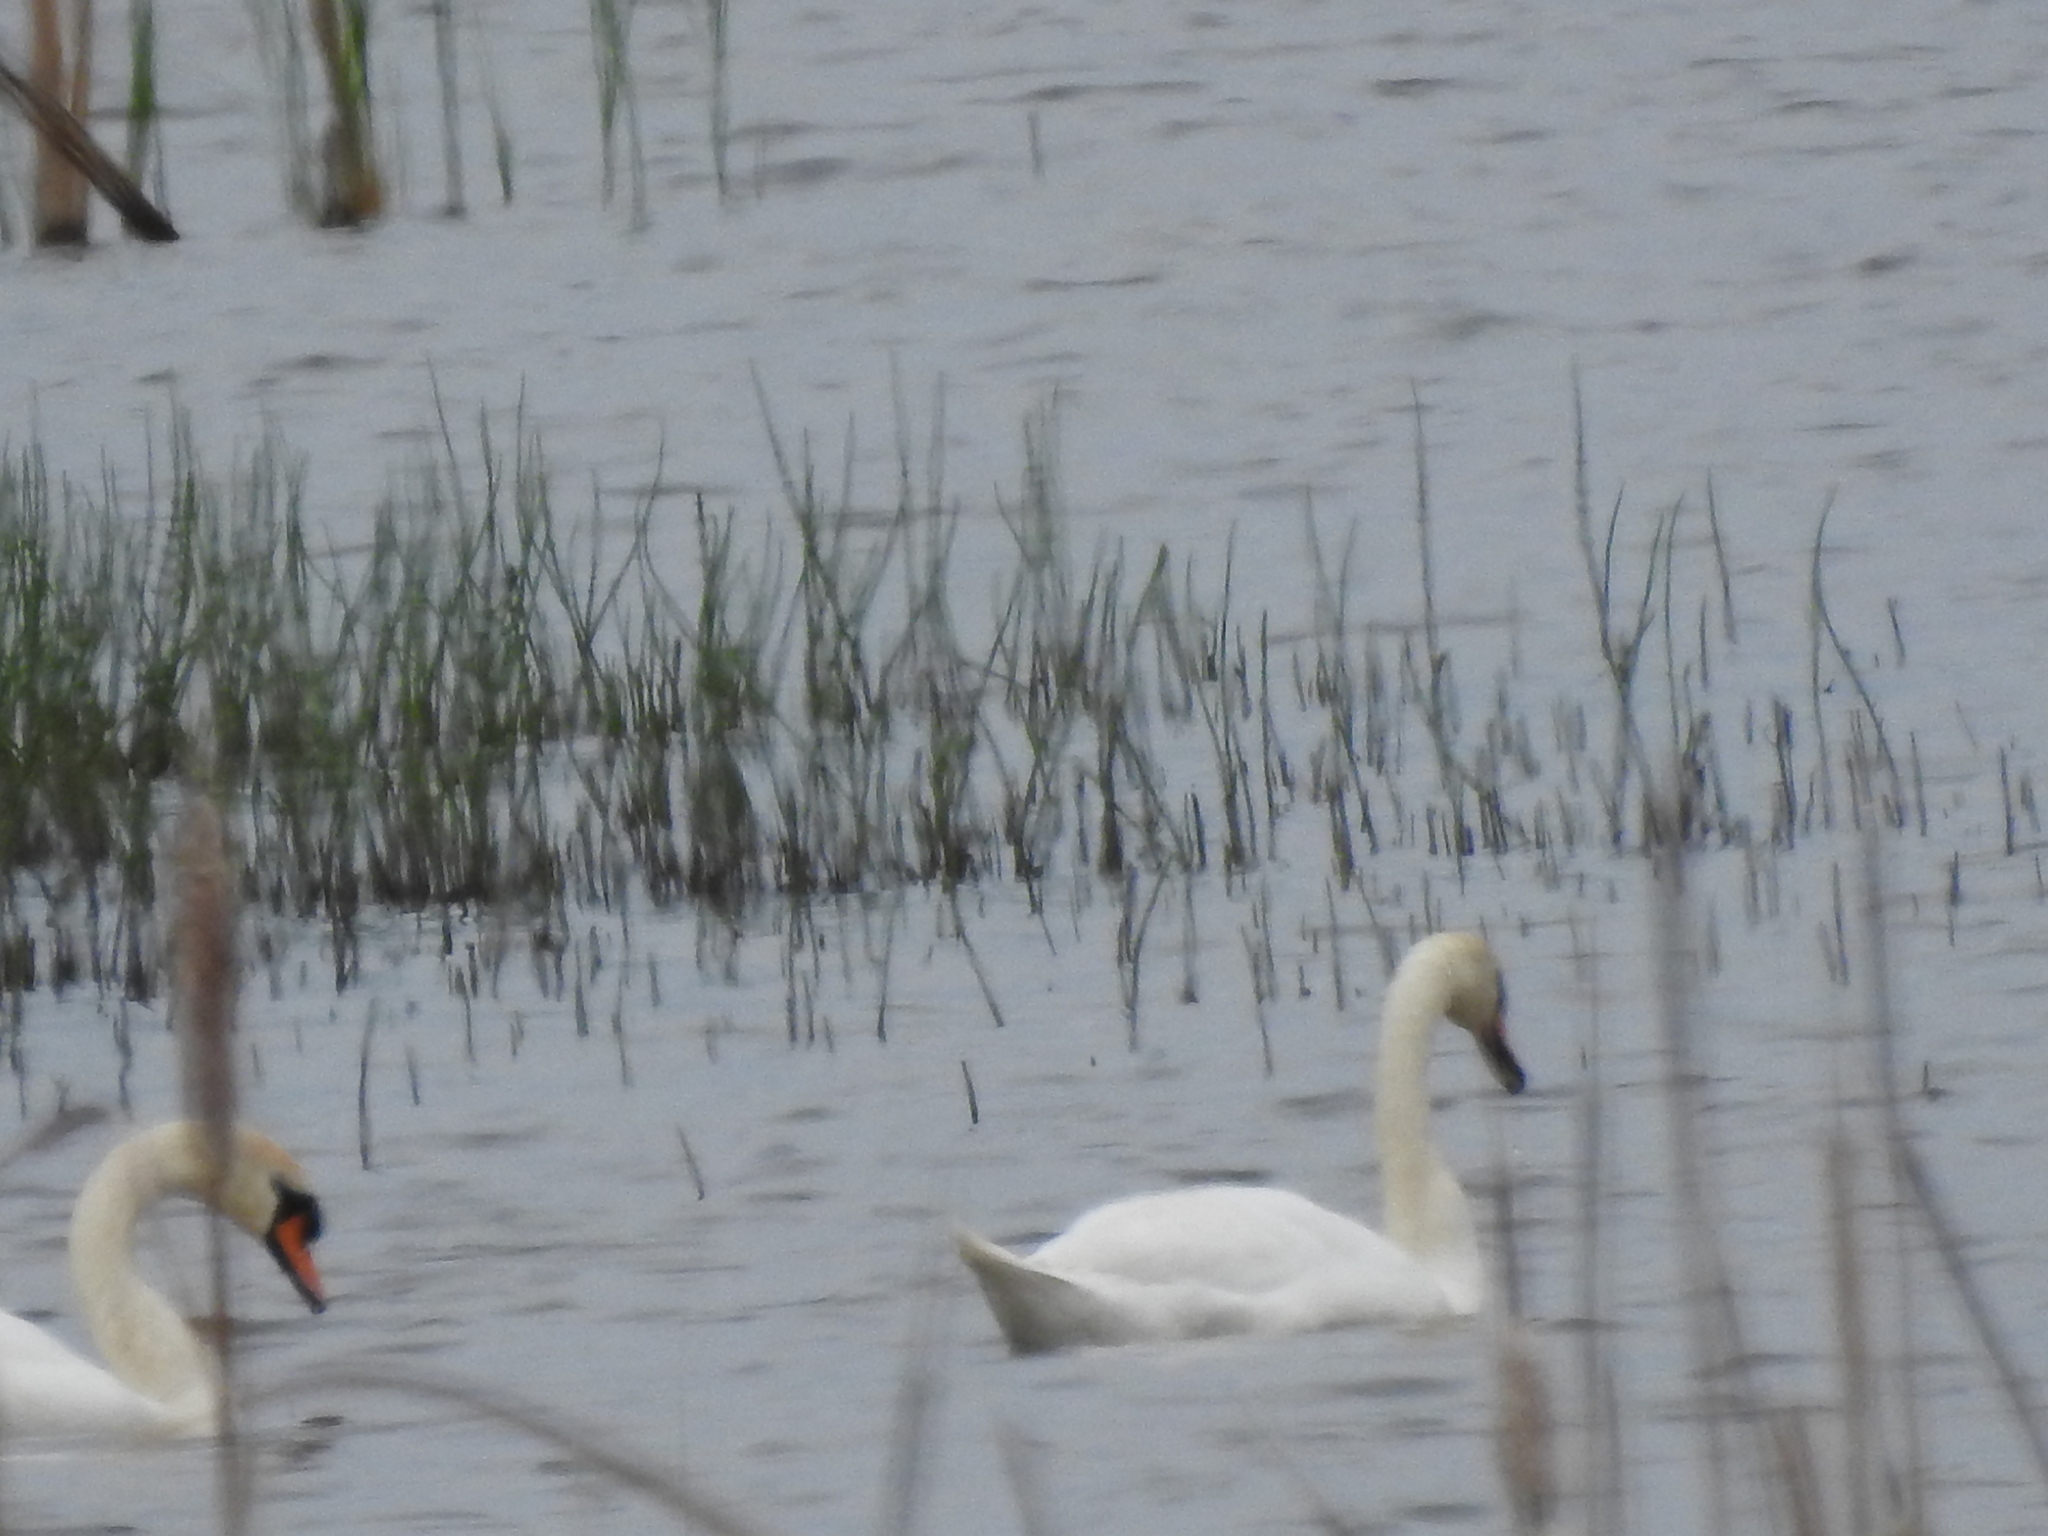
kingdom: Animalia
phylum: Chordata
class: Aves
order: Anseriformes
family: Anatidae
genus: Cygnus
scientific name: Cygnus olor
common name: Mute swan
